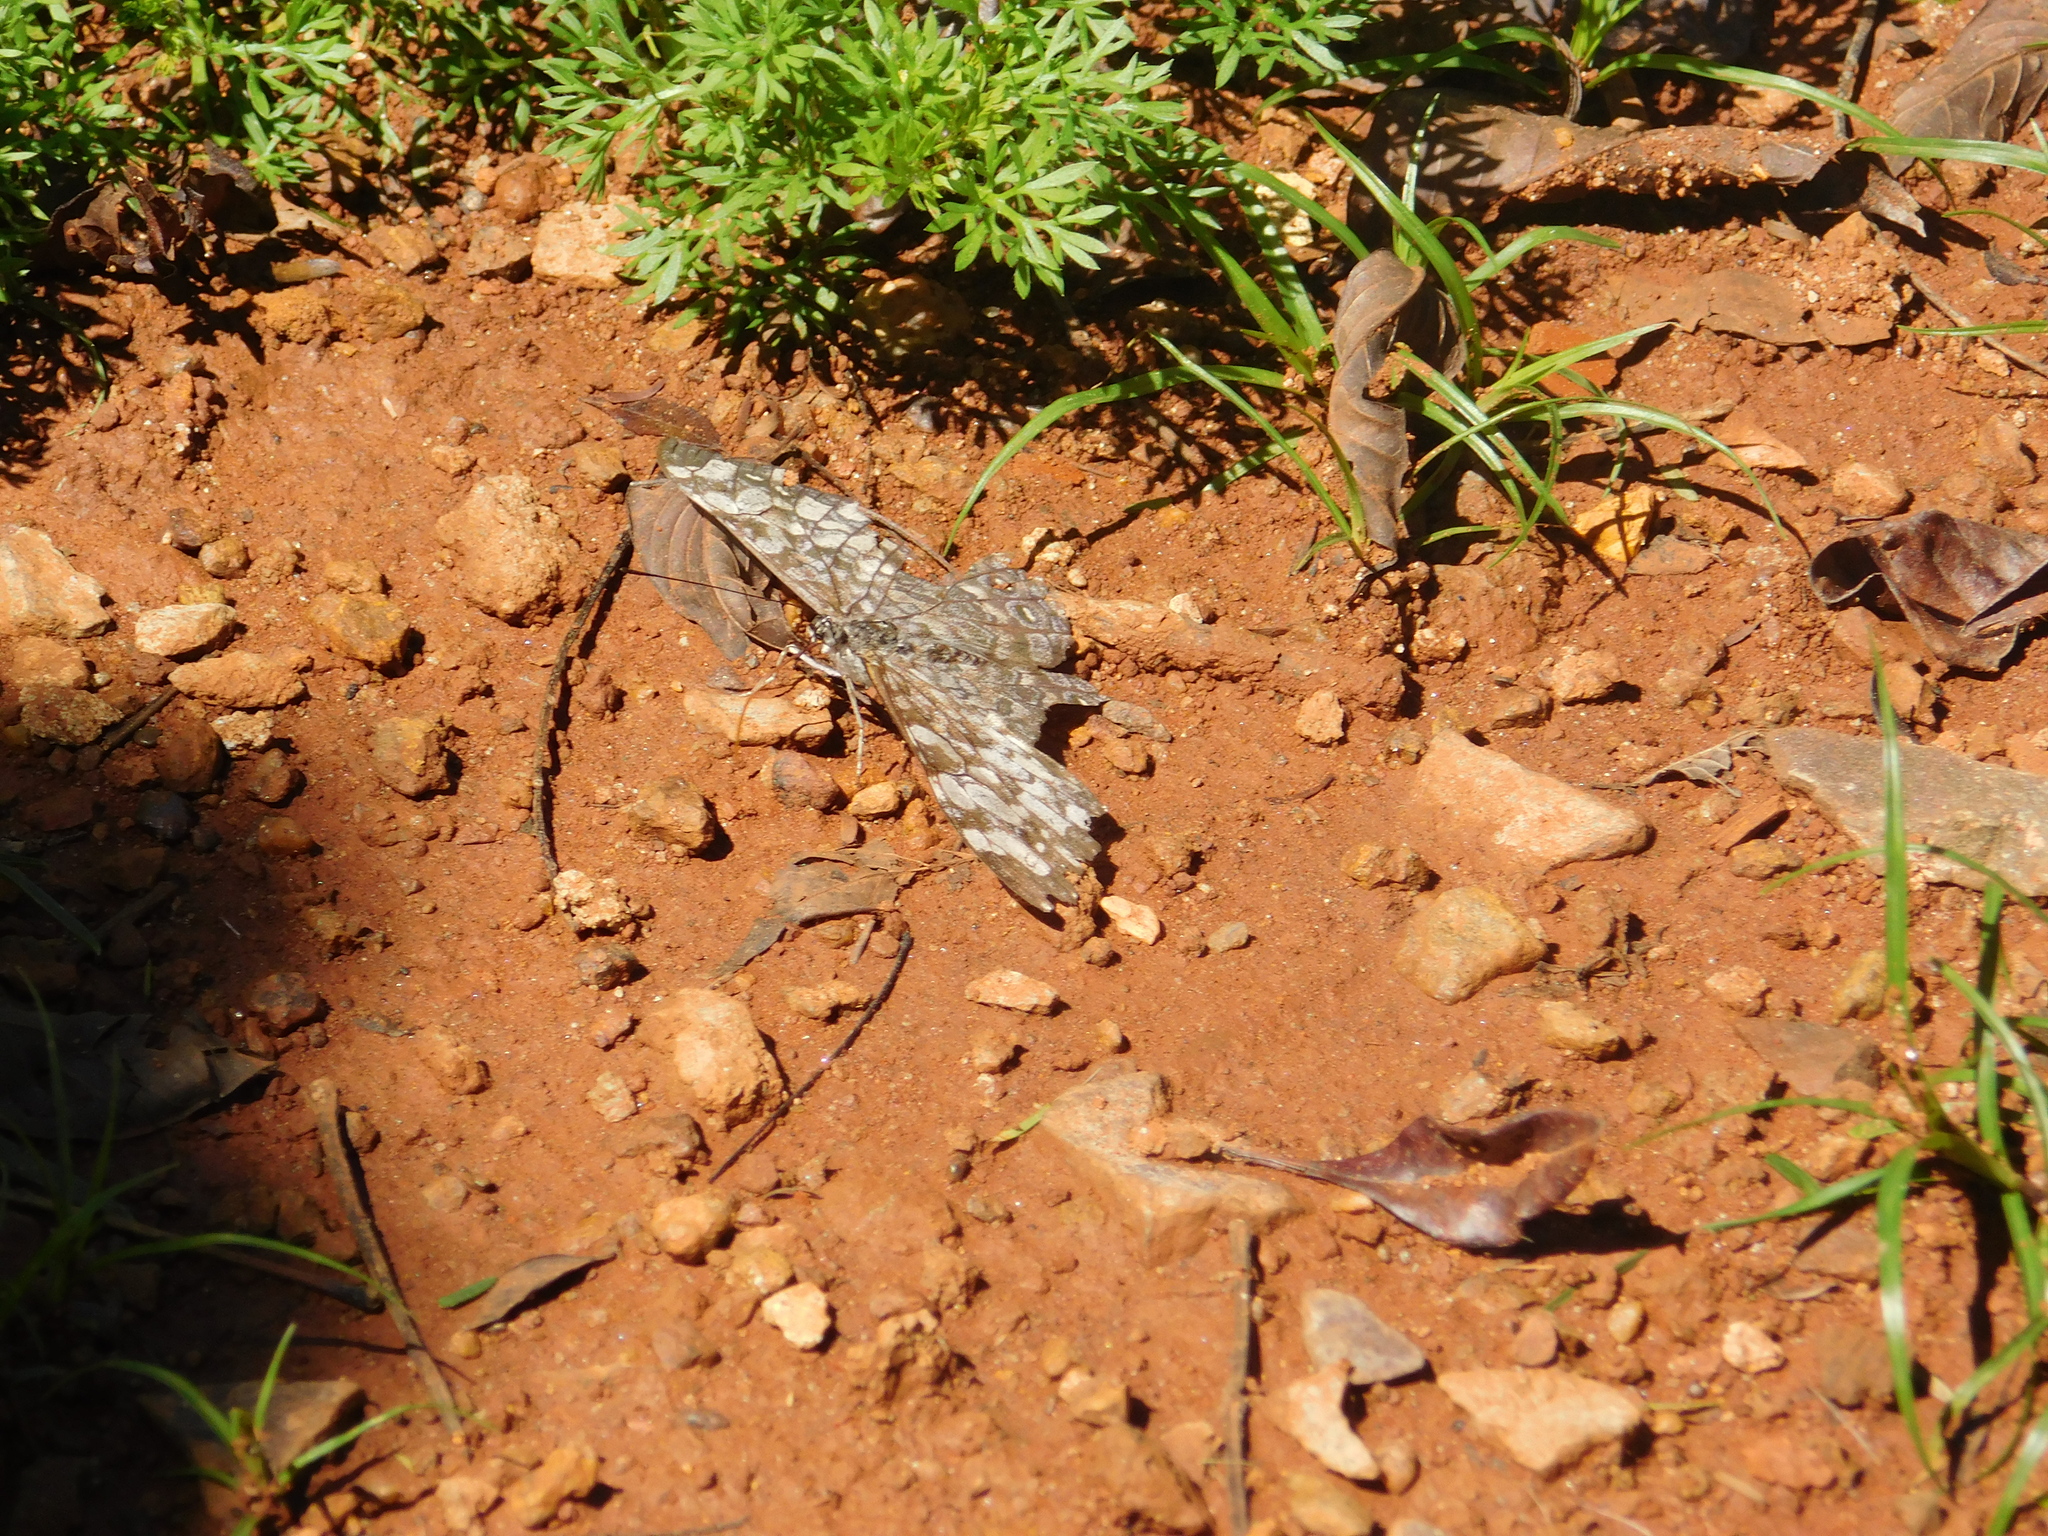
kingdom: Animalia
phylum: Arthropoda
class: Insecta
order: Lepidoptera
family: Nymphalidae
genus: Hamadryas
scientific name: Hamadryas epinome
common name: Epinome cracker
